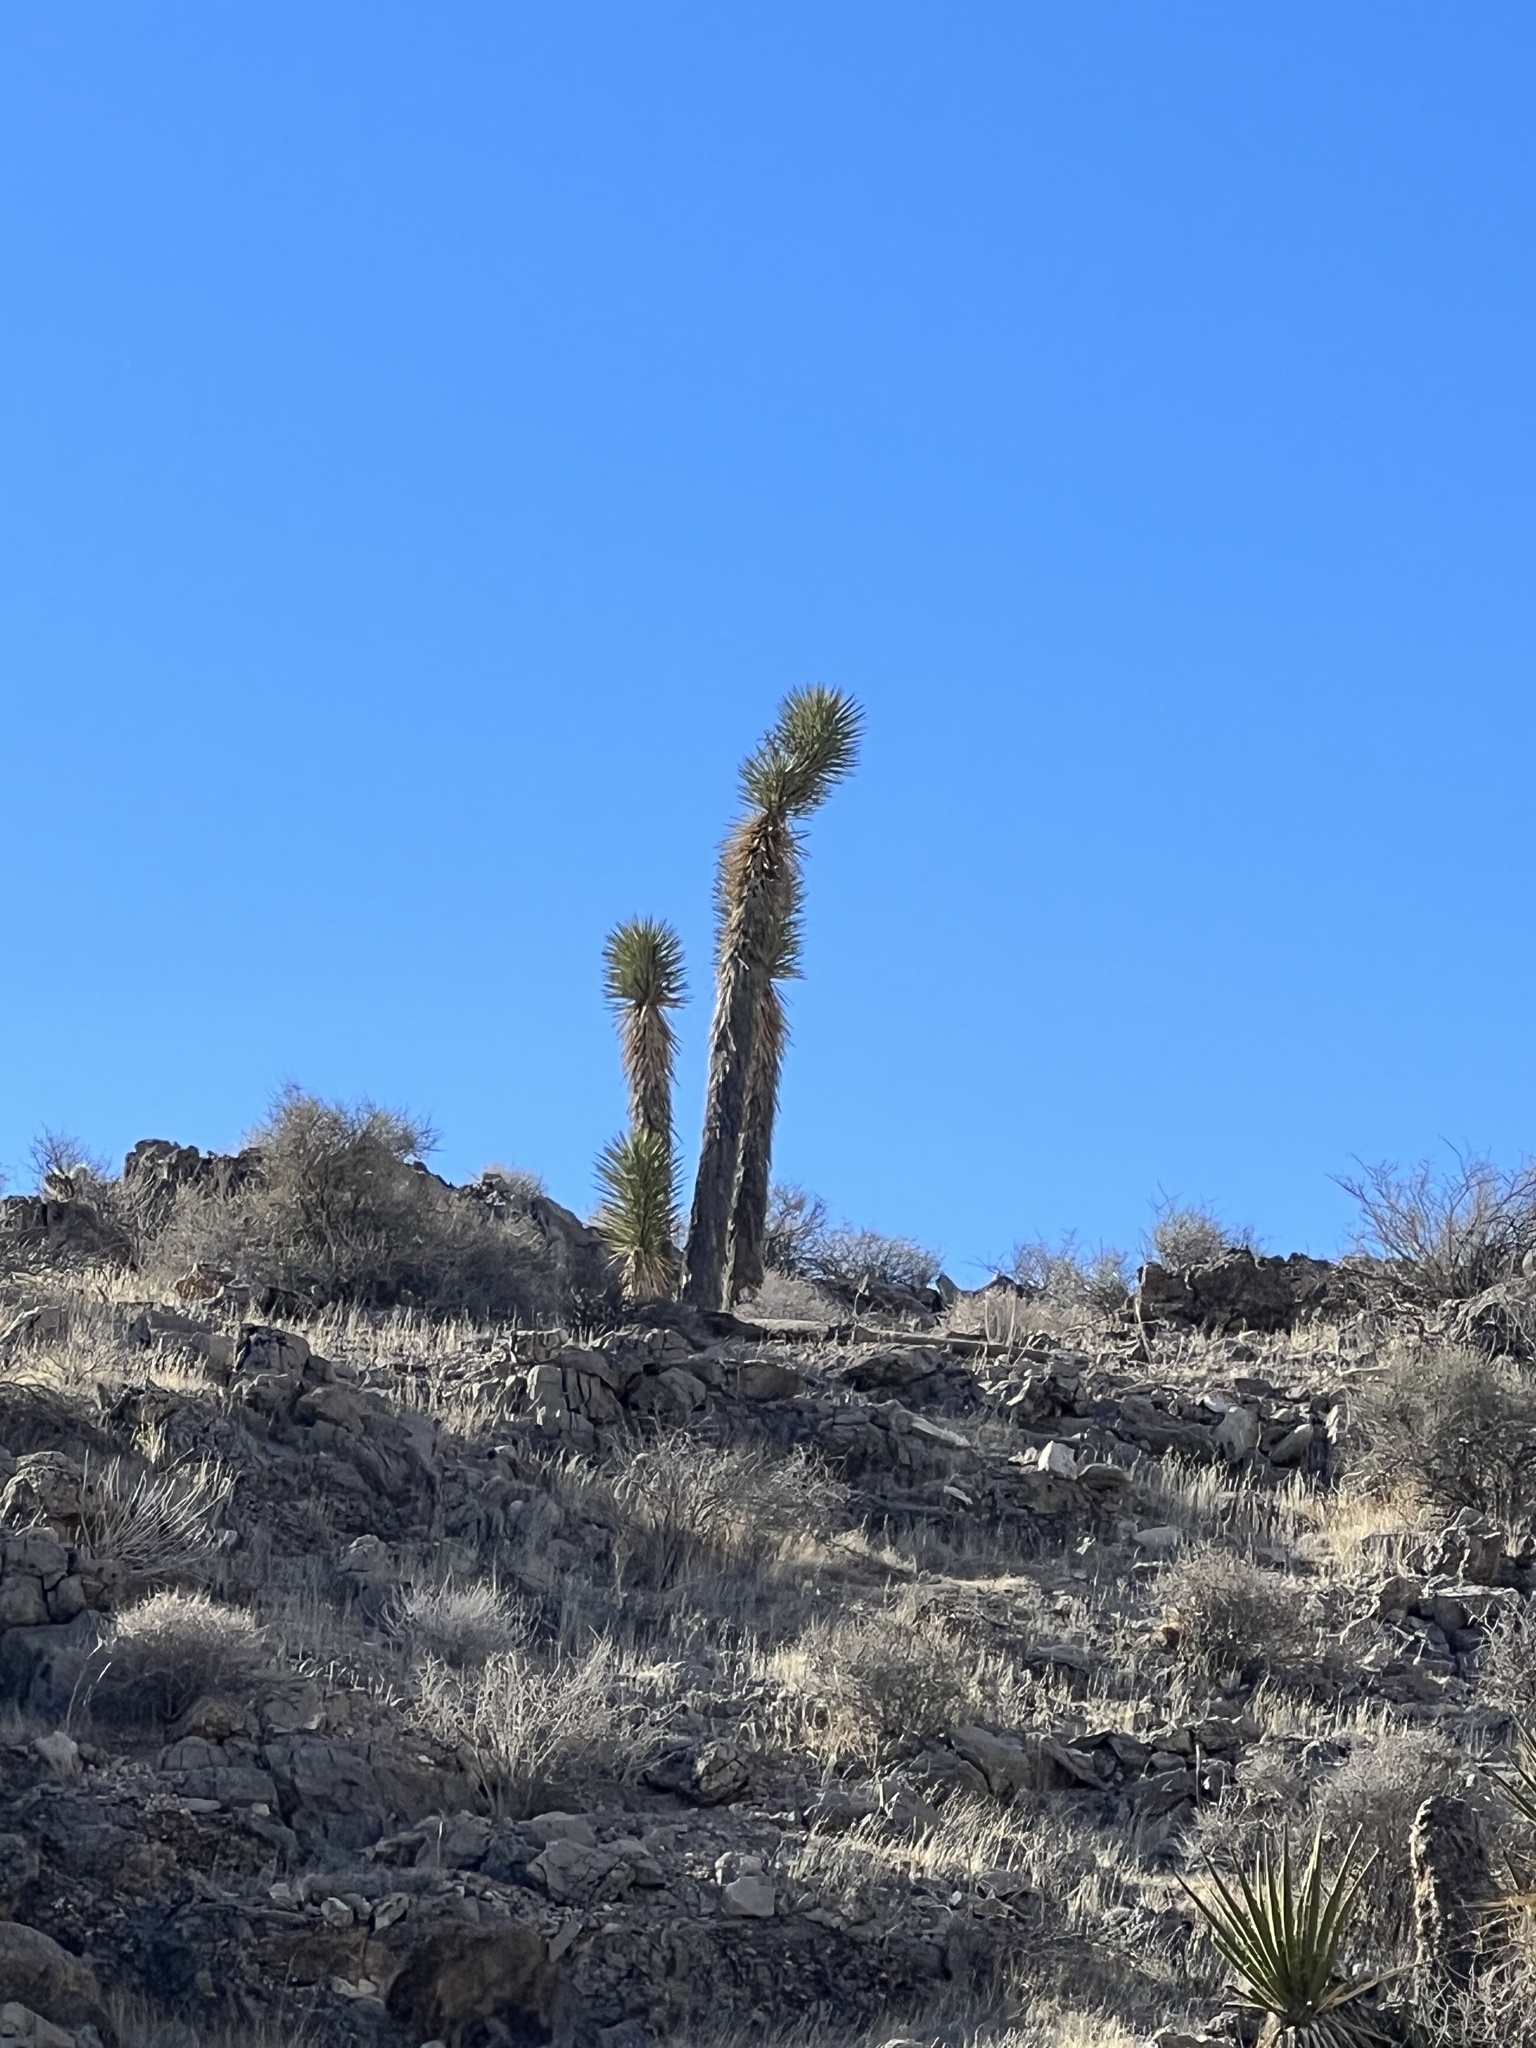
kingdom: Plantae
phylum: Tracheophyta
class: Liliopsida
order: Asparagales
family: Asparagaceae
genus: Yucca
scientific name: Yucca brevifolia
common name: Joshua tree
